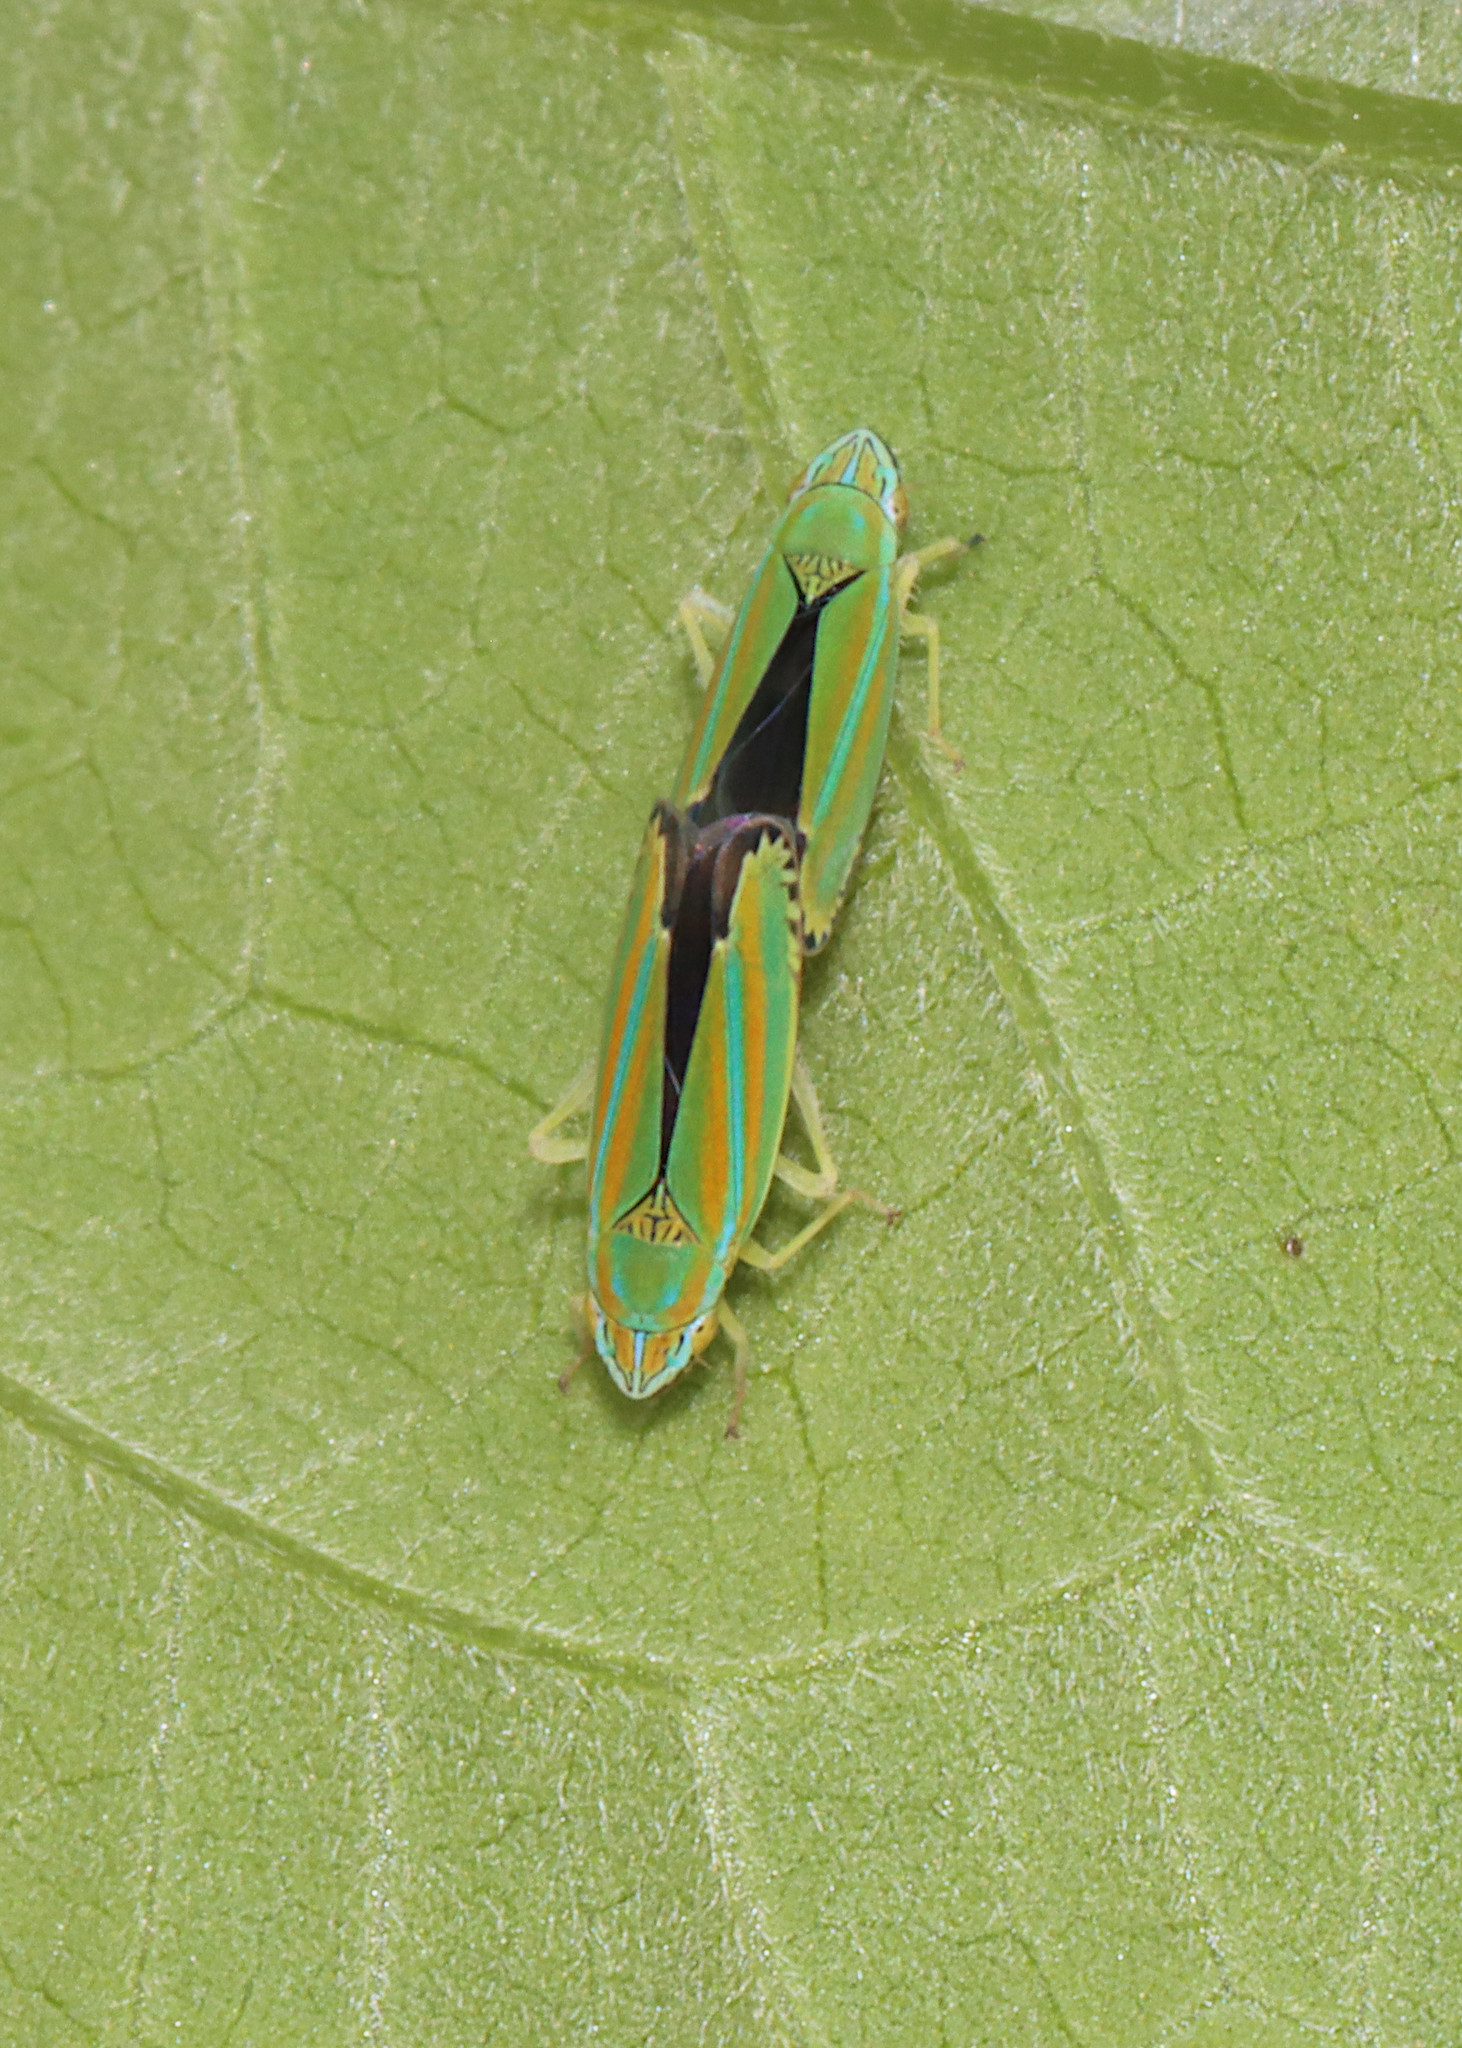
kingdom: Animalia
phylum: Arthropoda
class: Insecta
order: Hemiptera
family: Cicadellidae
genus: Graphocephala
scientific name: Graphocephala versuta
